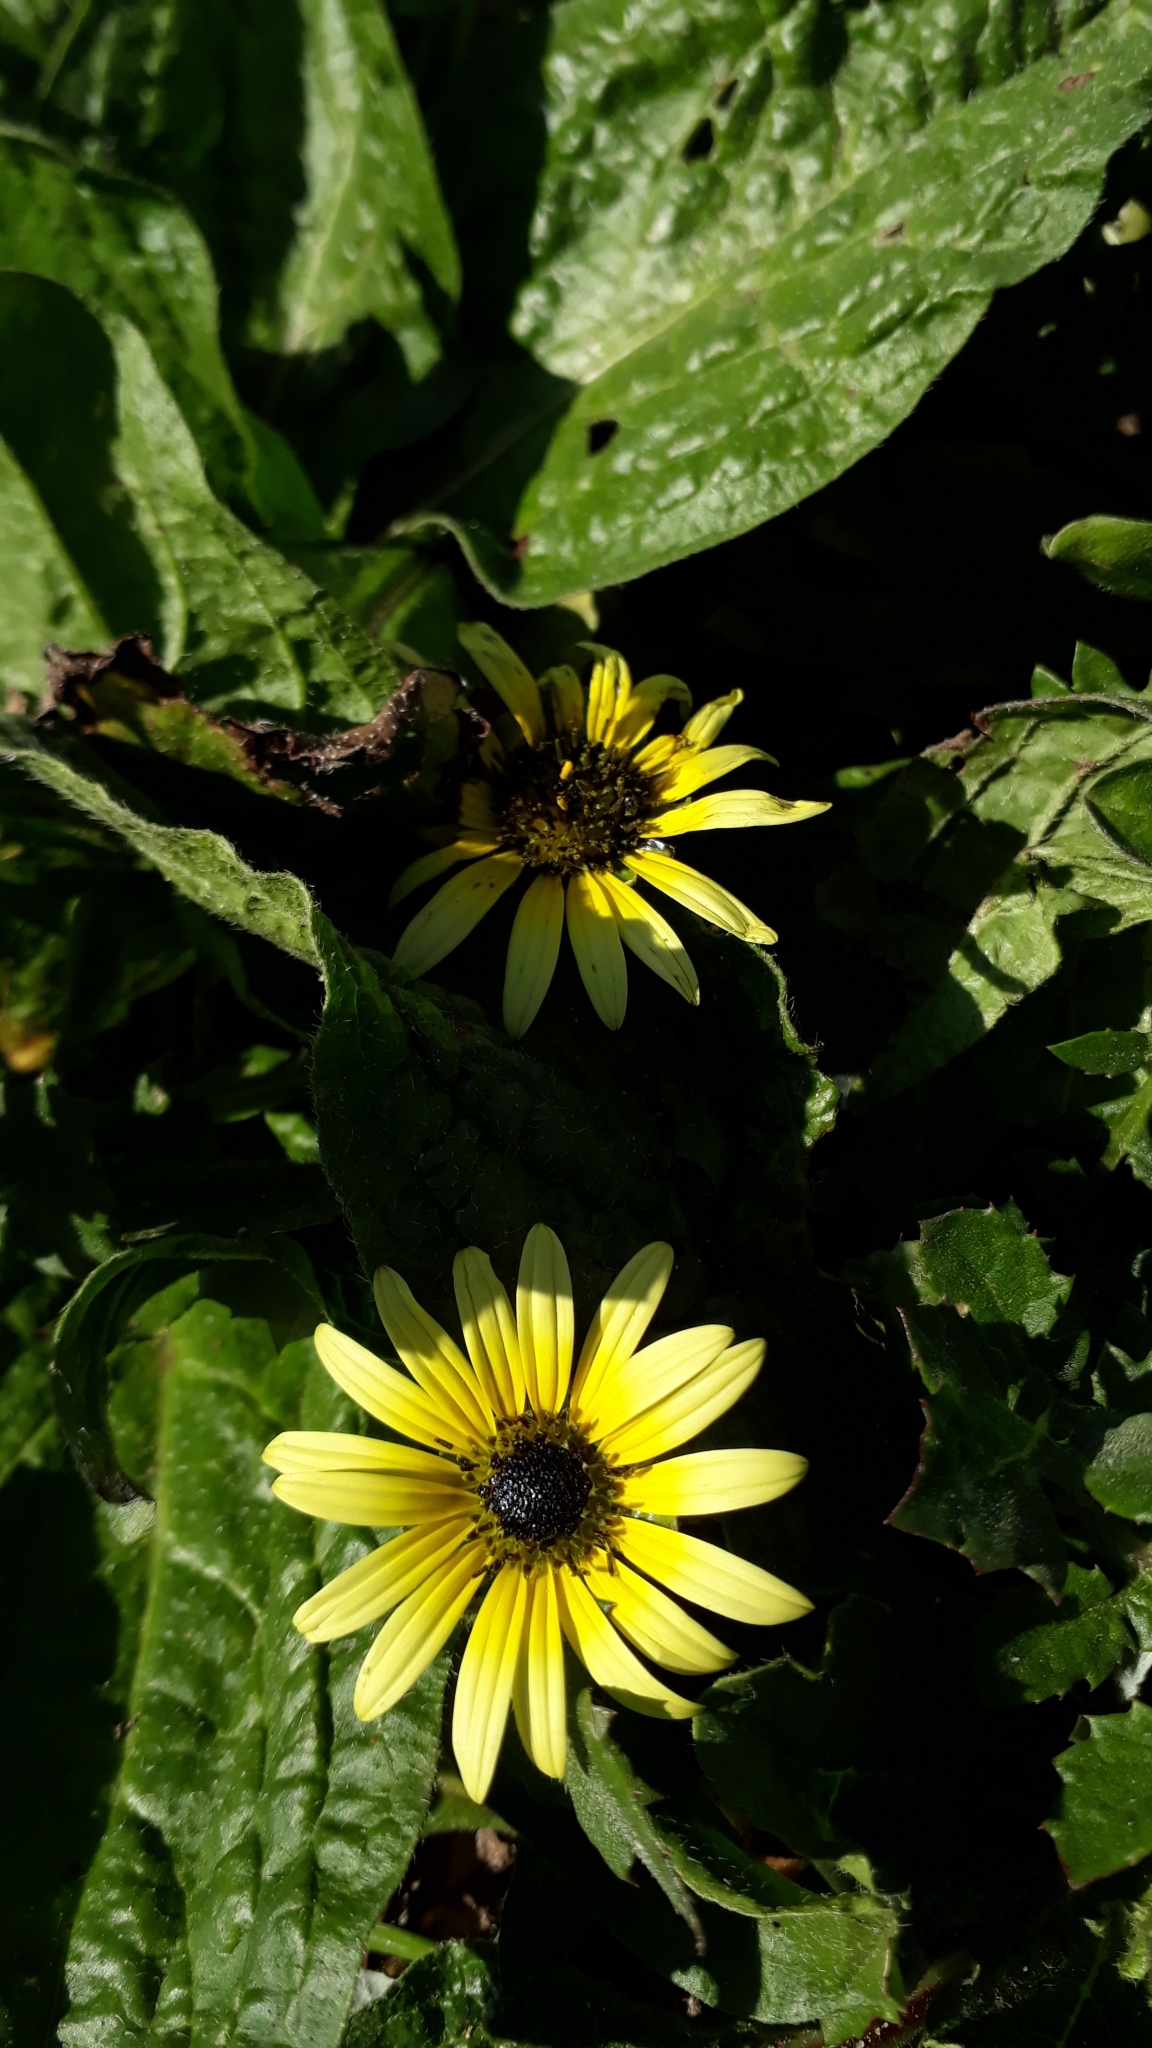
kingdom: Plantae
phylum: Tracheophyta
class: Magnoliopsida
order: Asterales
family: Asteraceae
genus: Arctotheca
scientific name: Arctotheca calendula
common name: Capeweed
